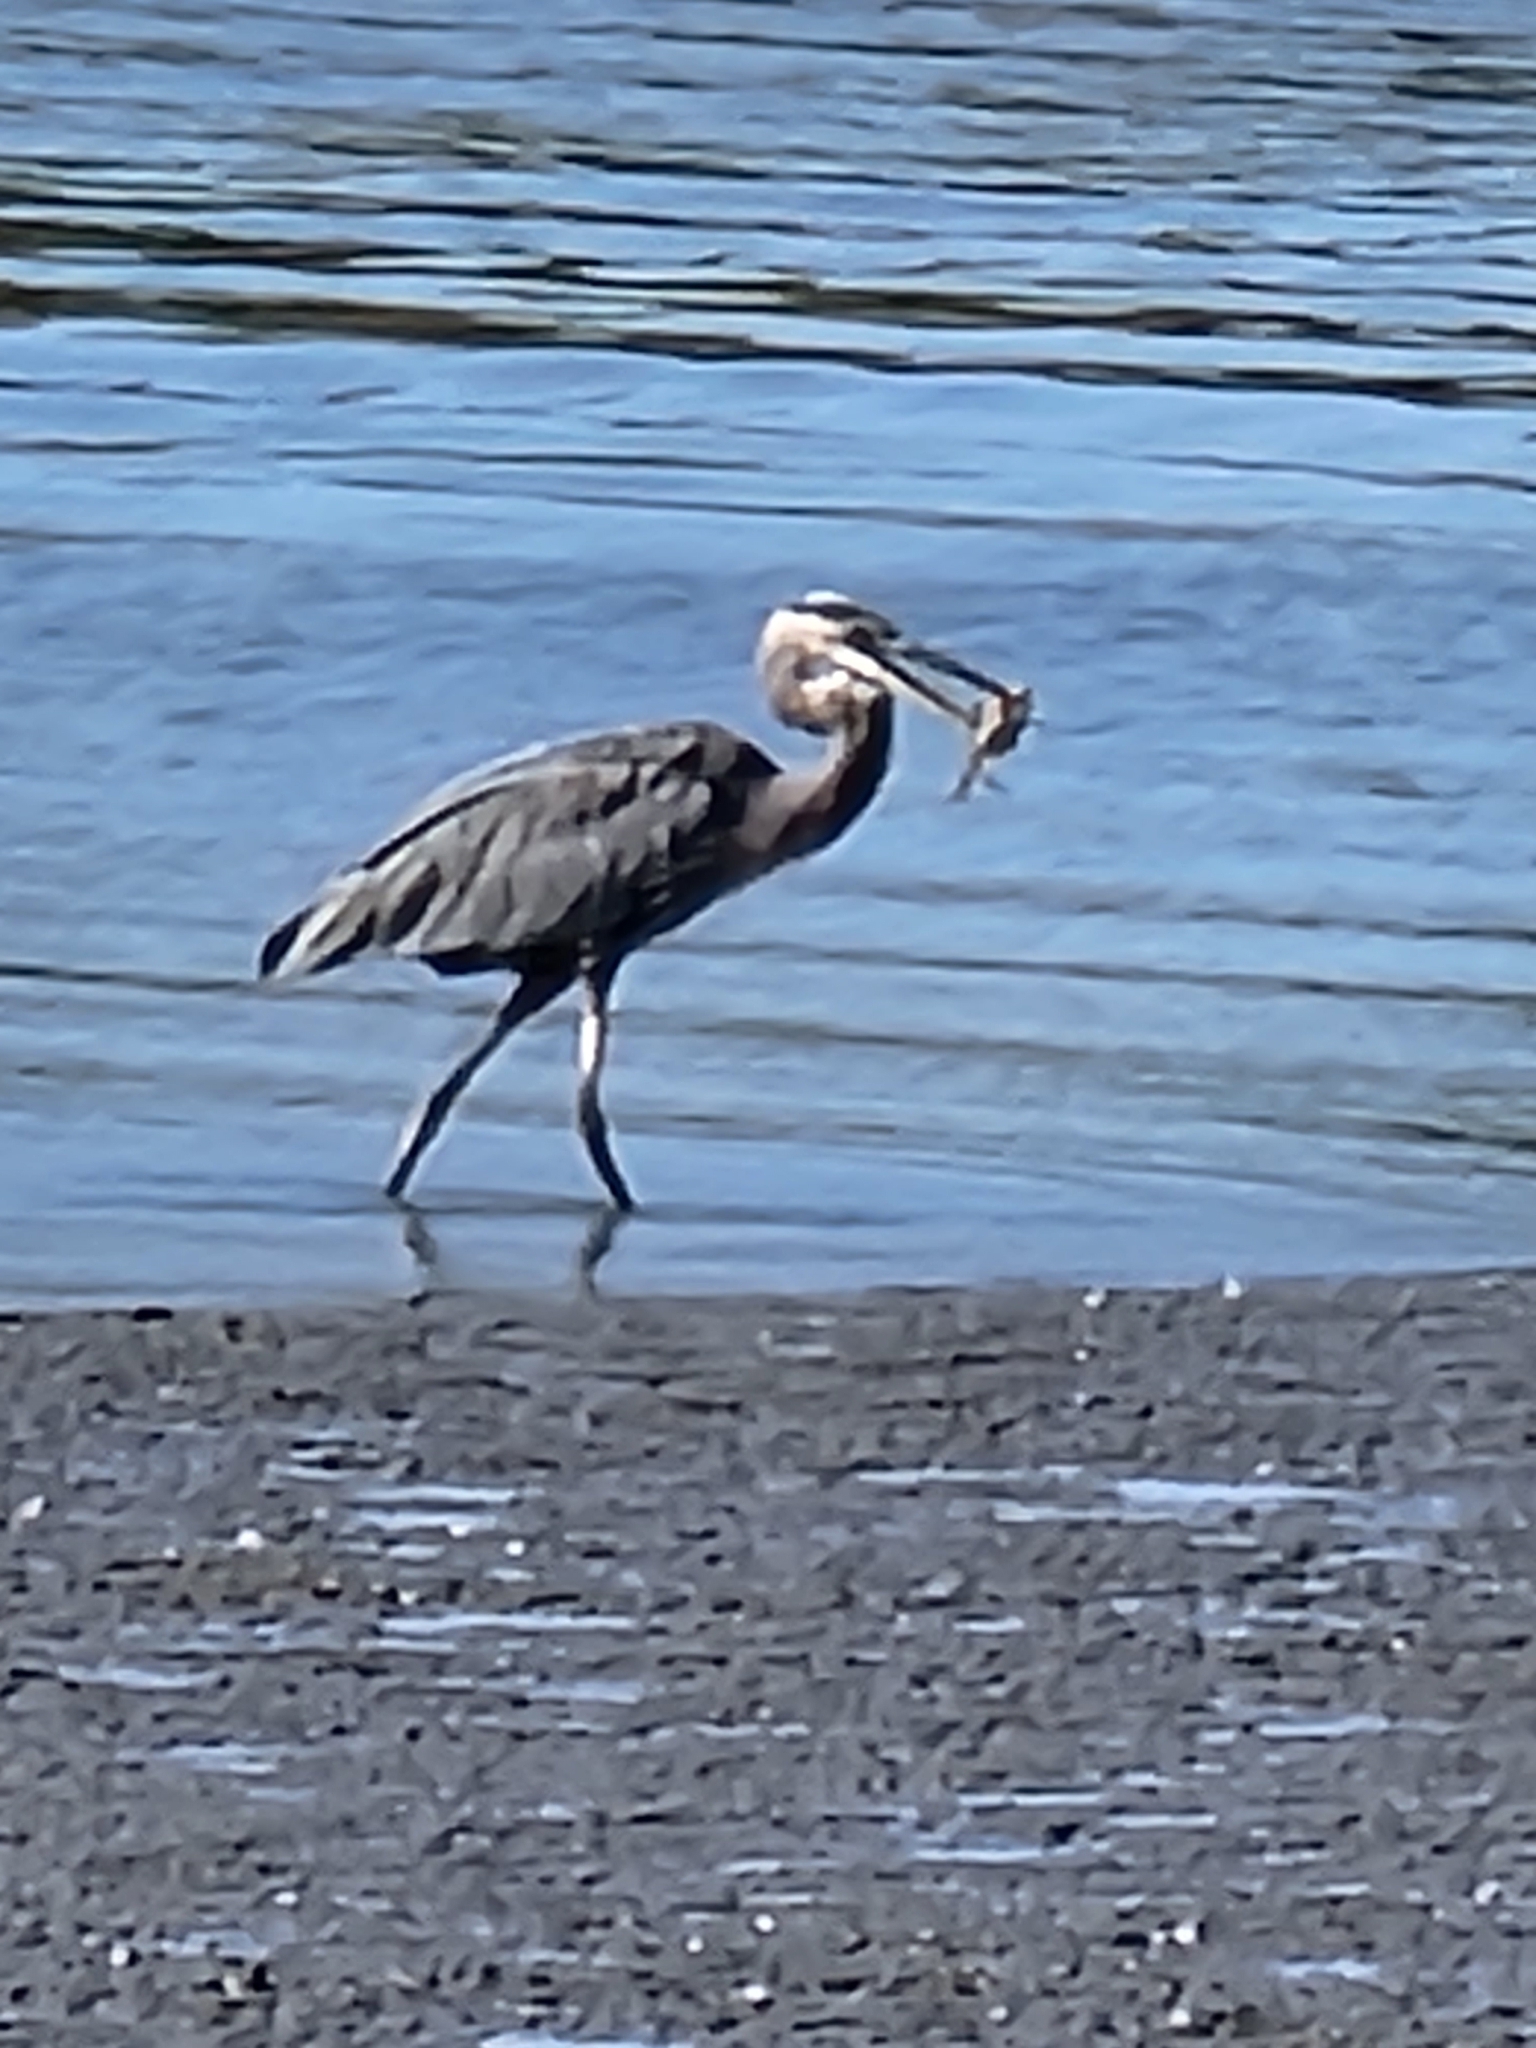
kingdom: Animalia
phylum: Chordata
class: Aves
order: Pelecaniformes
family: Ardeidae
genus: Ardea
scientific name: Ardea herodias
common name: Great blue heron
